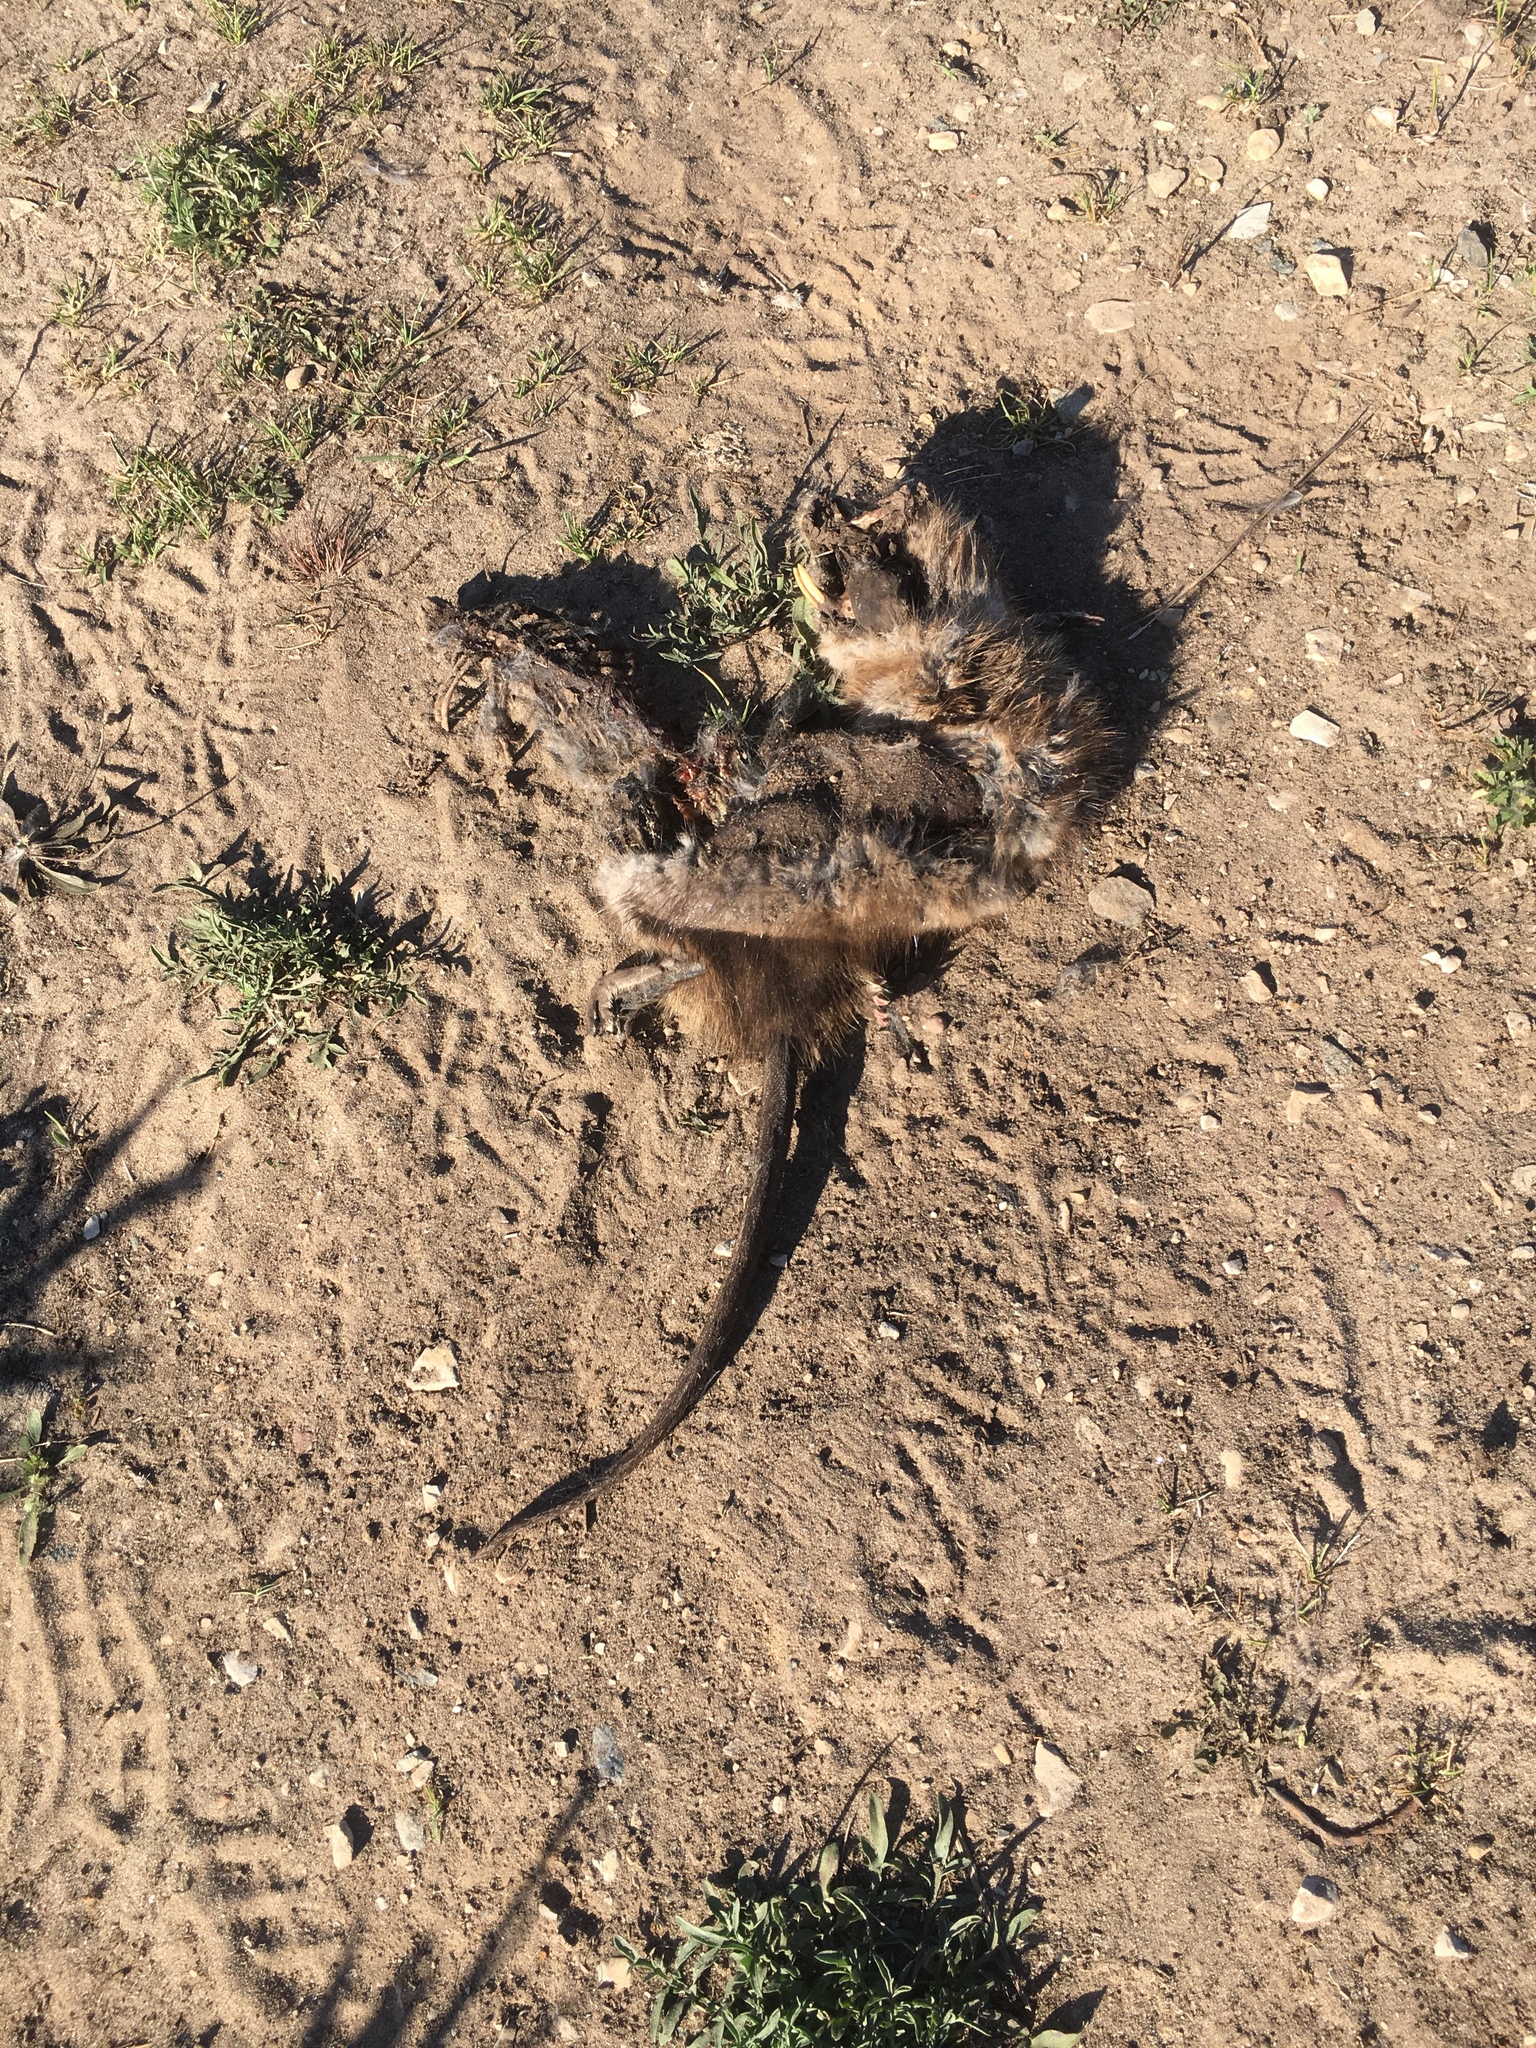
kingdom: Animalia
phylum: Chordata
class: Mammalia
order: Rodentia
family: Cricetidae
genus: Ondatra
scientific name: Ondatra zibethicus
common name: Muskrat
